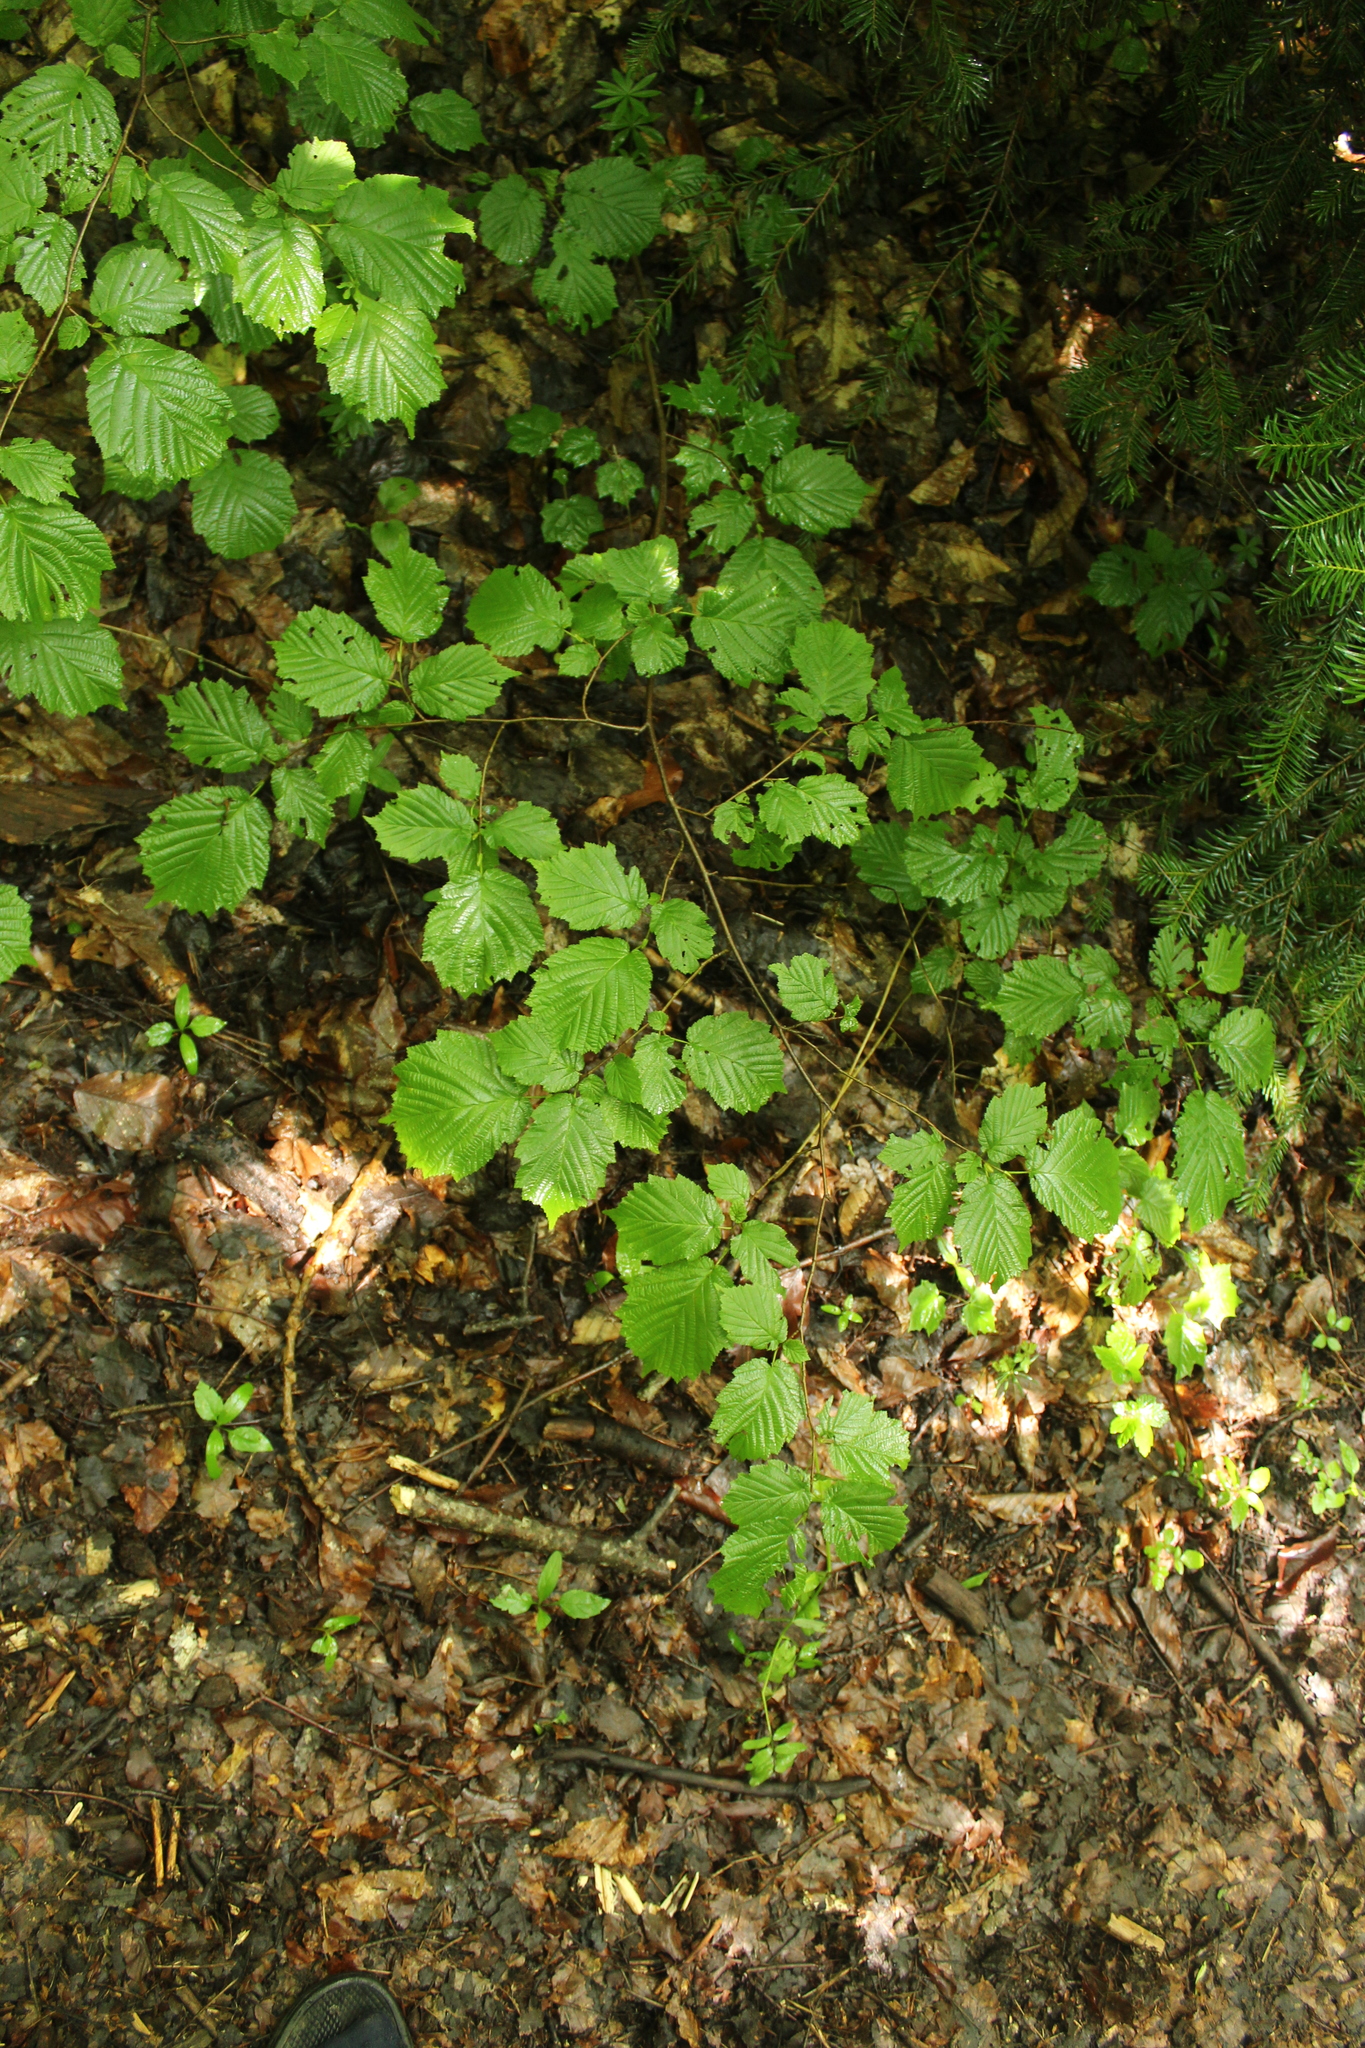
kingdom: Plantae
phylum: Tracheophyta
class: Magnoliopsida
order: Fagales
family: Betulaceae
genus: Corylus
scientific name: Corylus avellana
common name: European hazel
